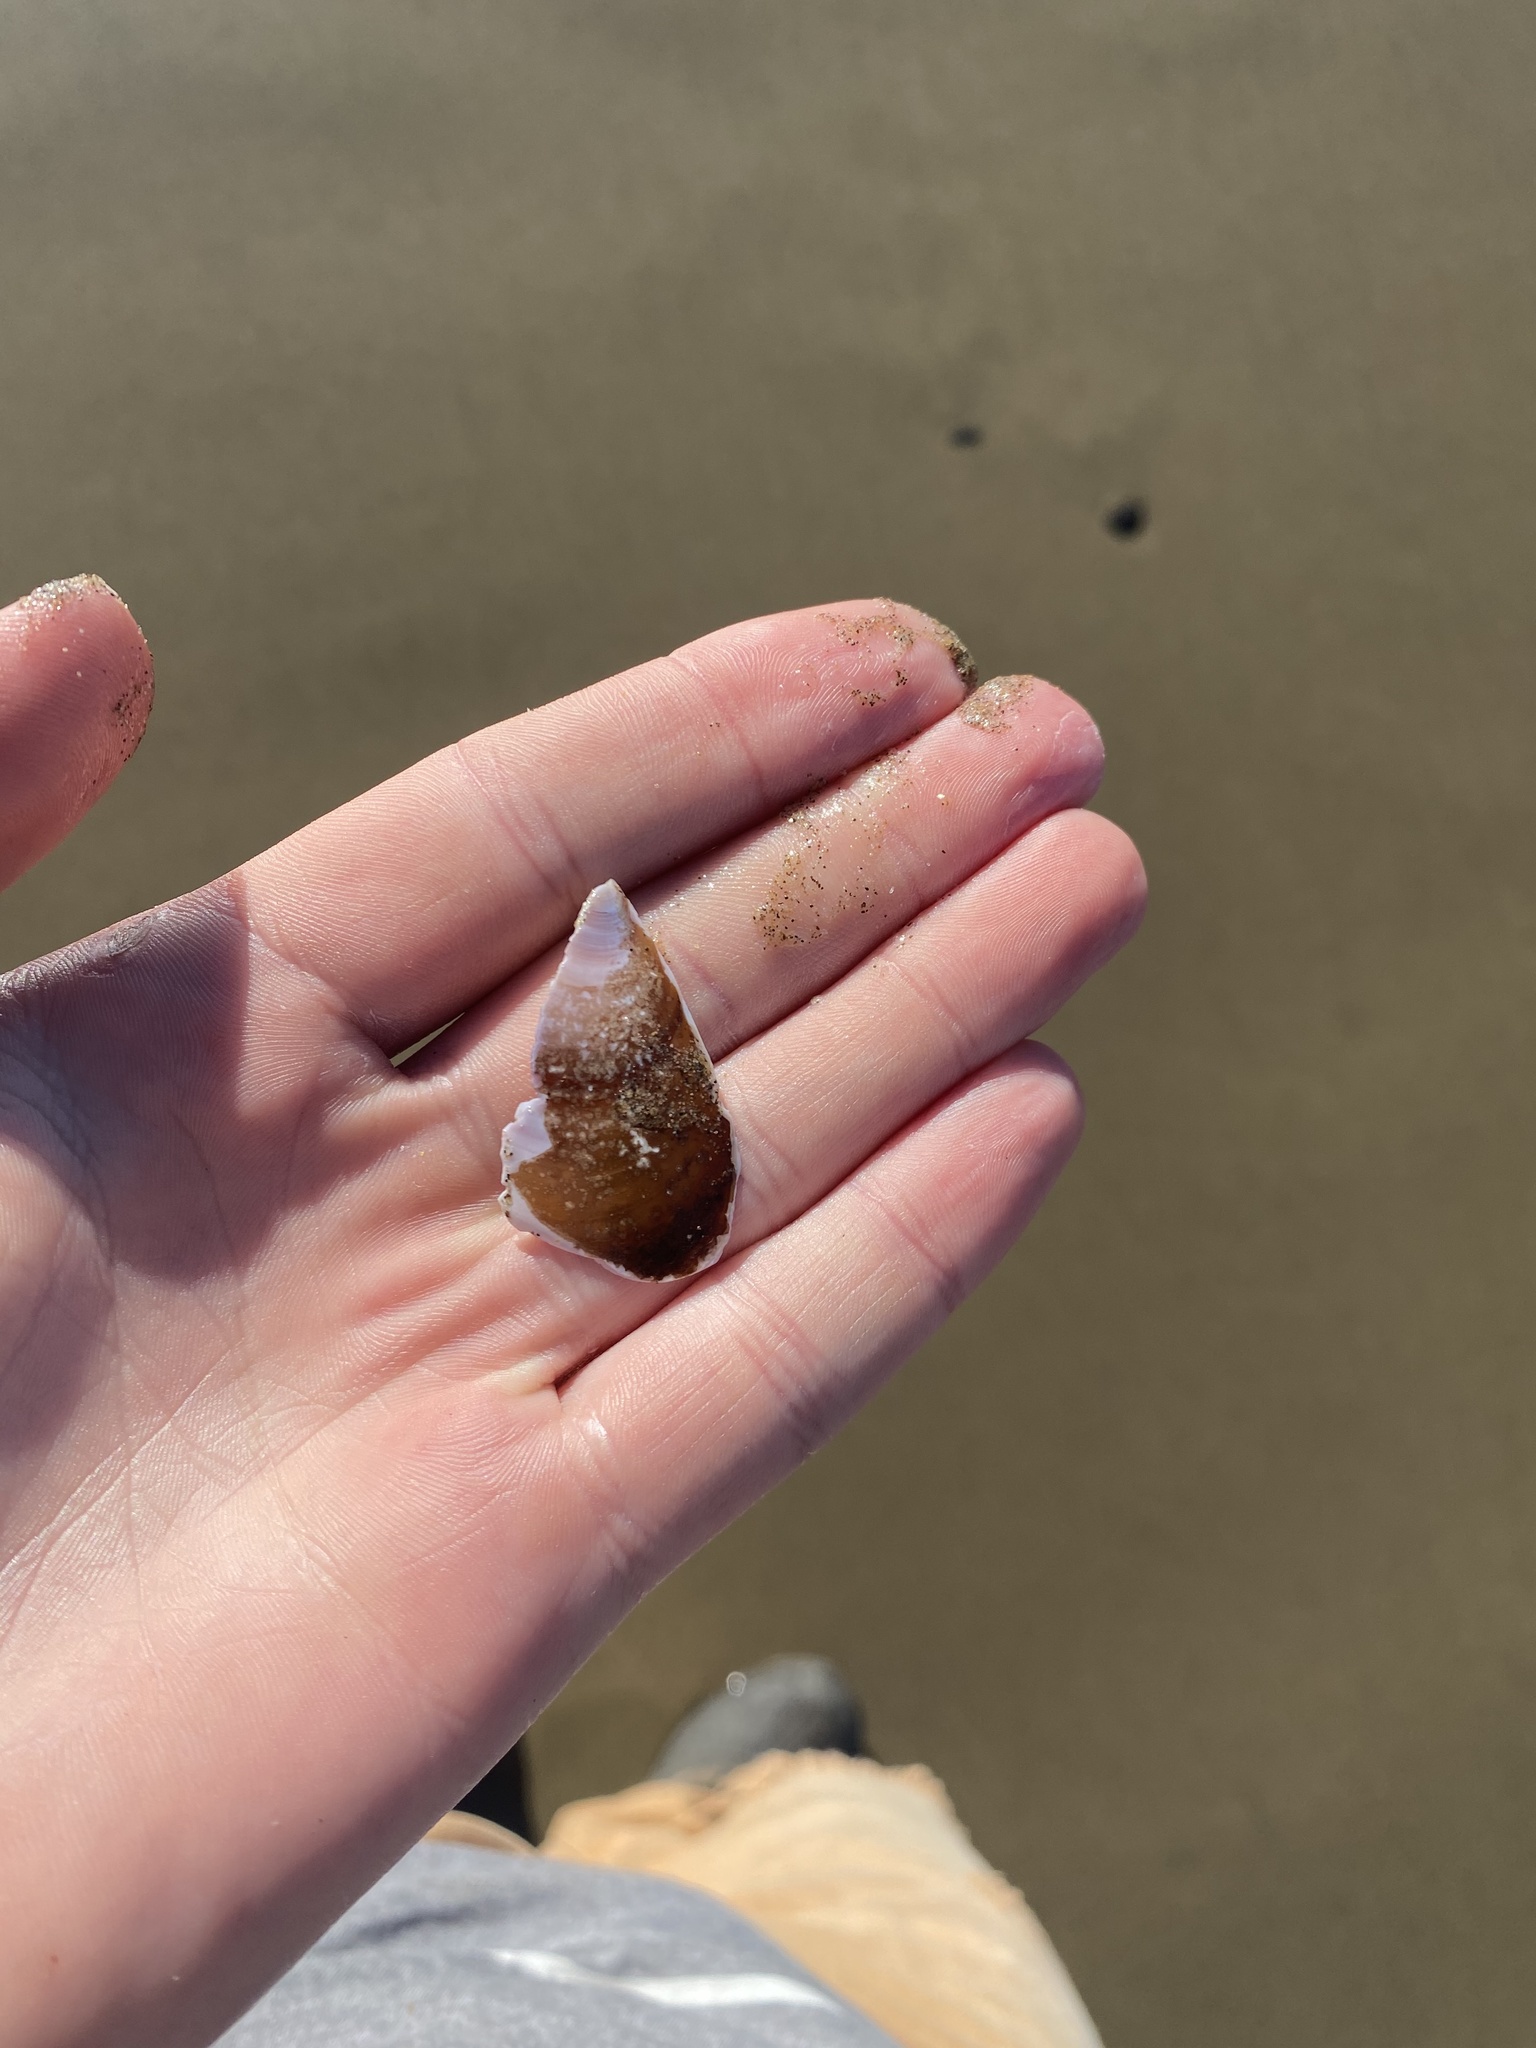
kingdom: Animalia
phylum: Mollusca
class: Bivalvia
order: Cardiida
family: Psammobiidae
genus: Nuttallia
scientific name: Nuttallia obscurata
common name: Purple mahogany-clam
